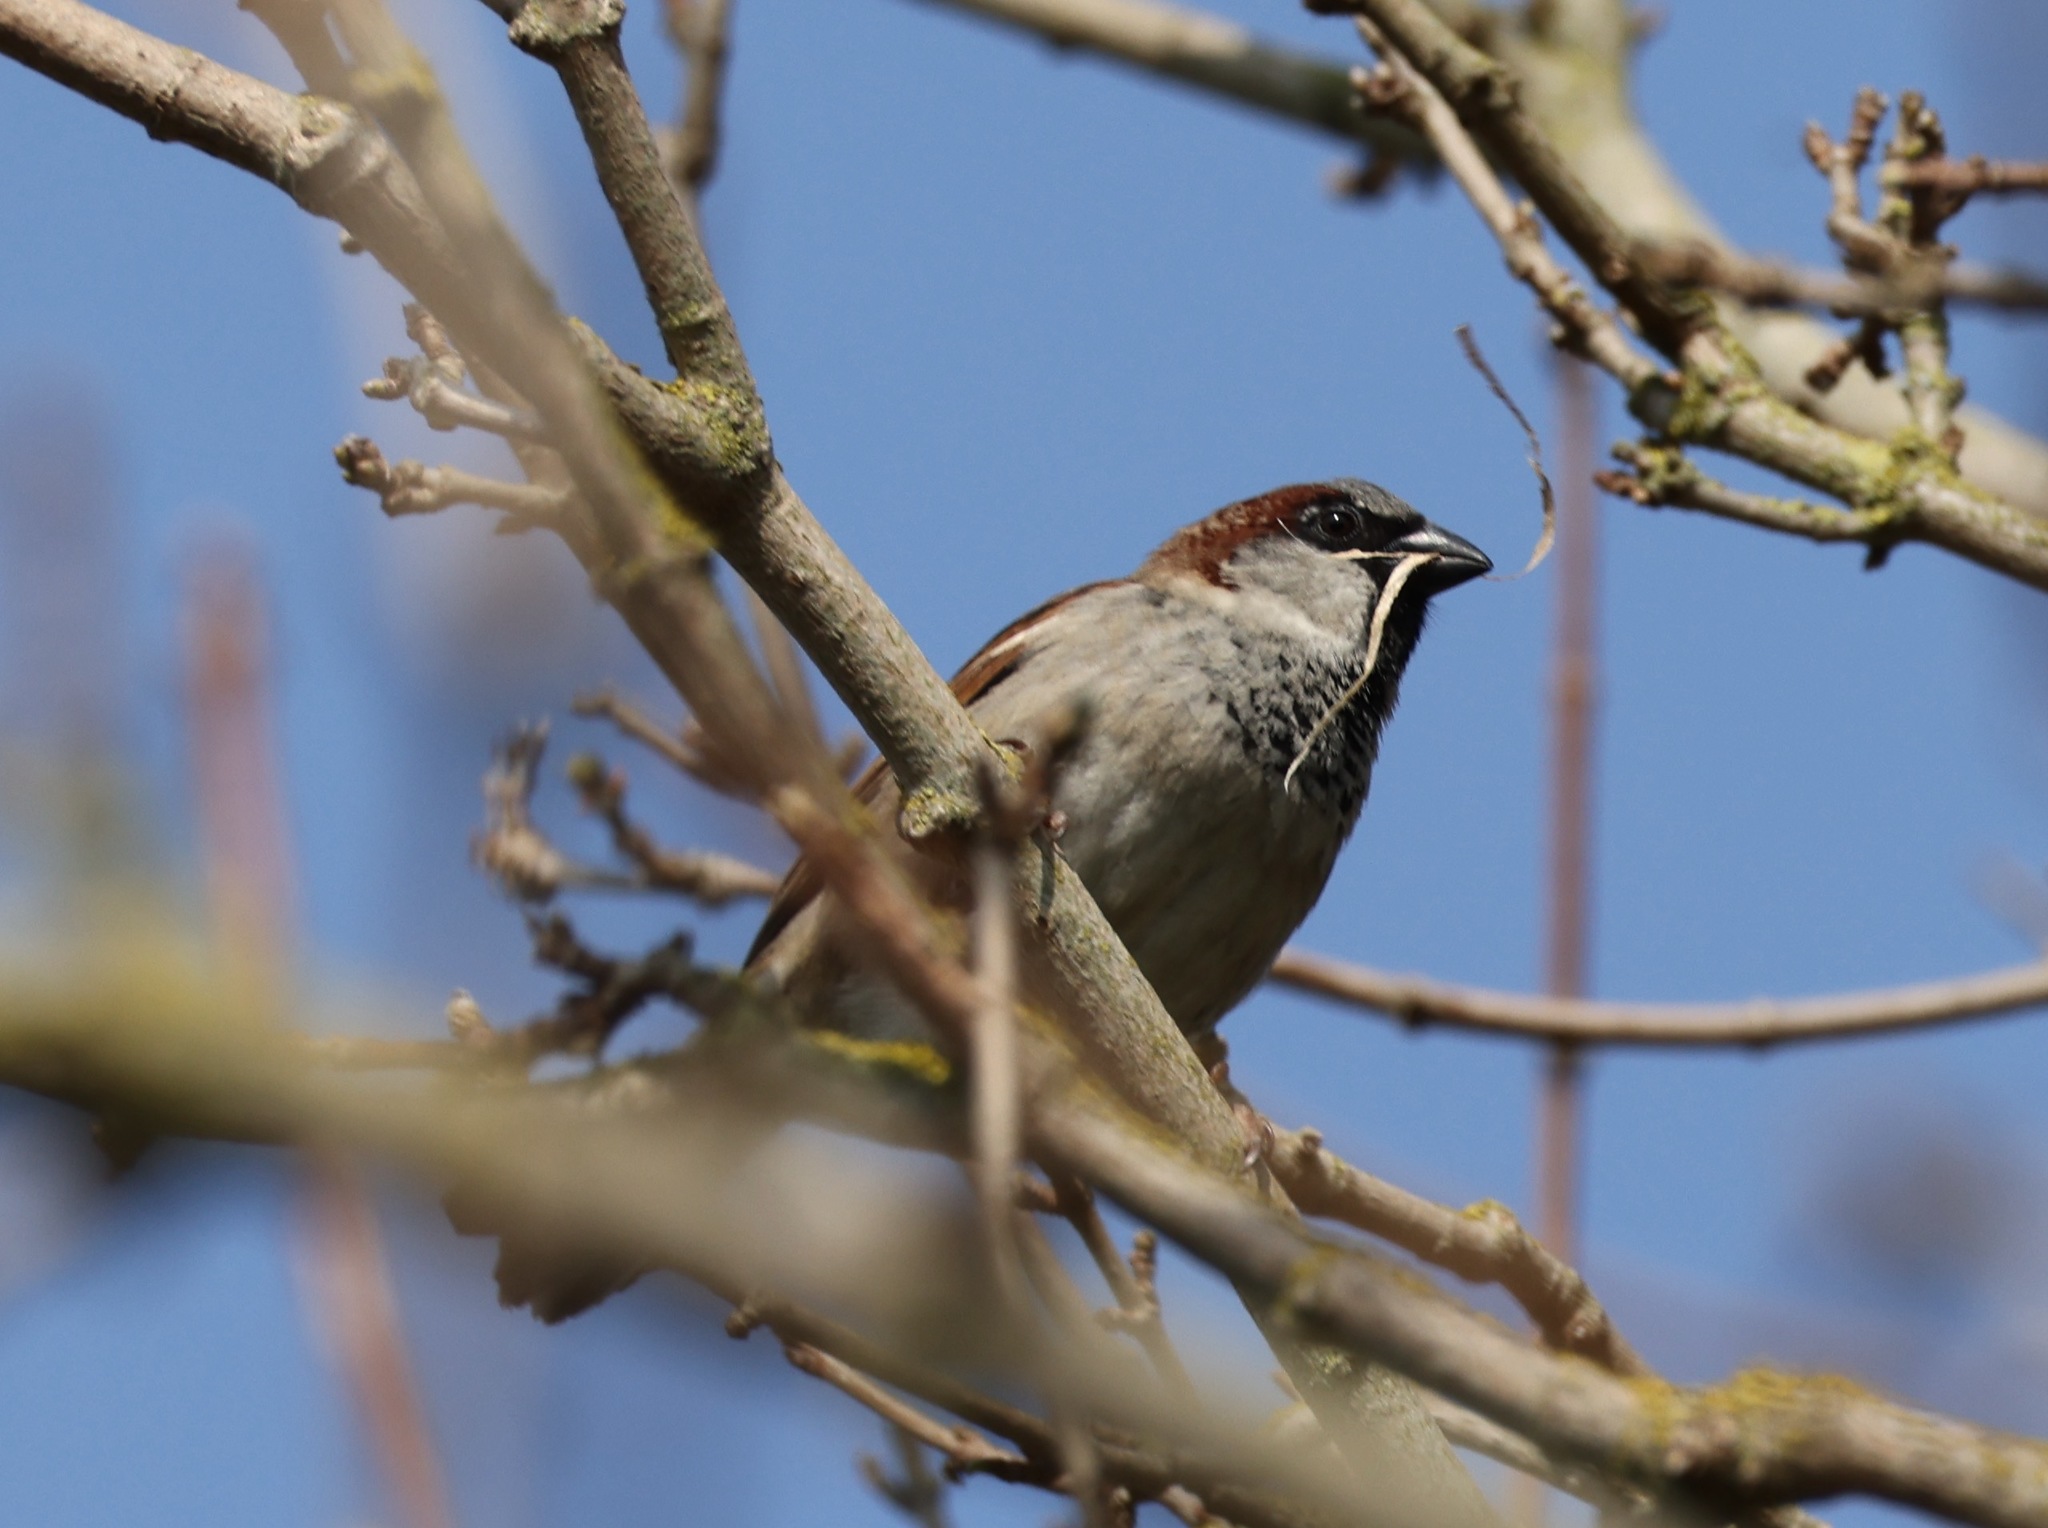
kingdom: Animalia
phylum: Chordata
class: Aves
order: Passeriformes
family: Passeridae
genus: Passer
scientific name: Passer domesticus
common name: House sparrow
